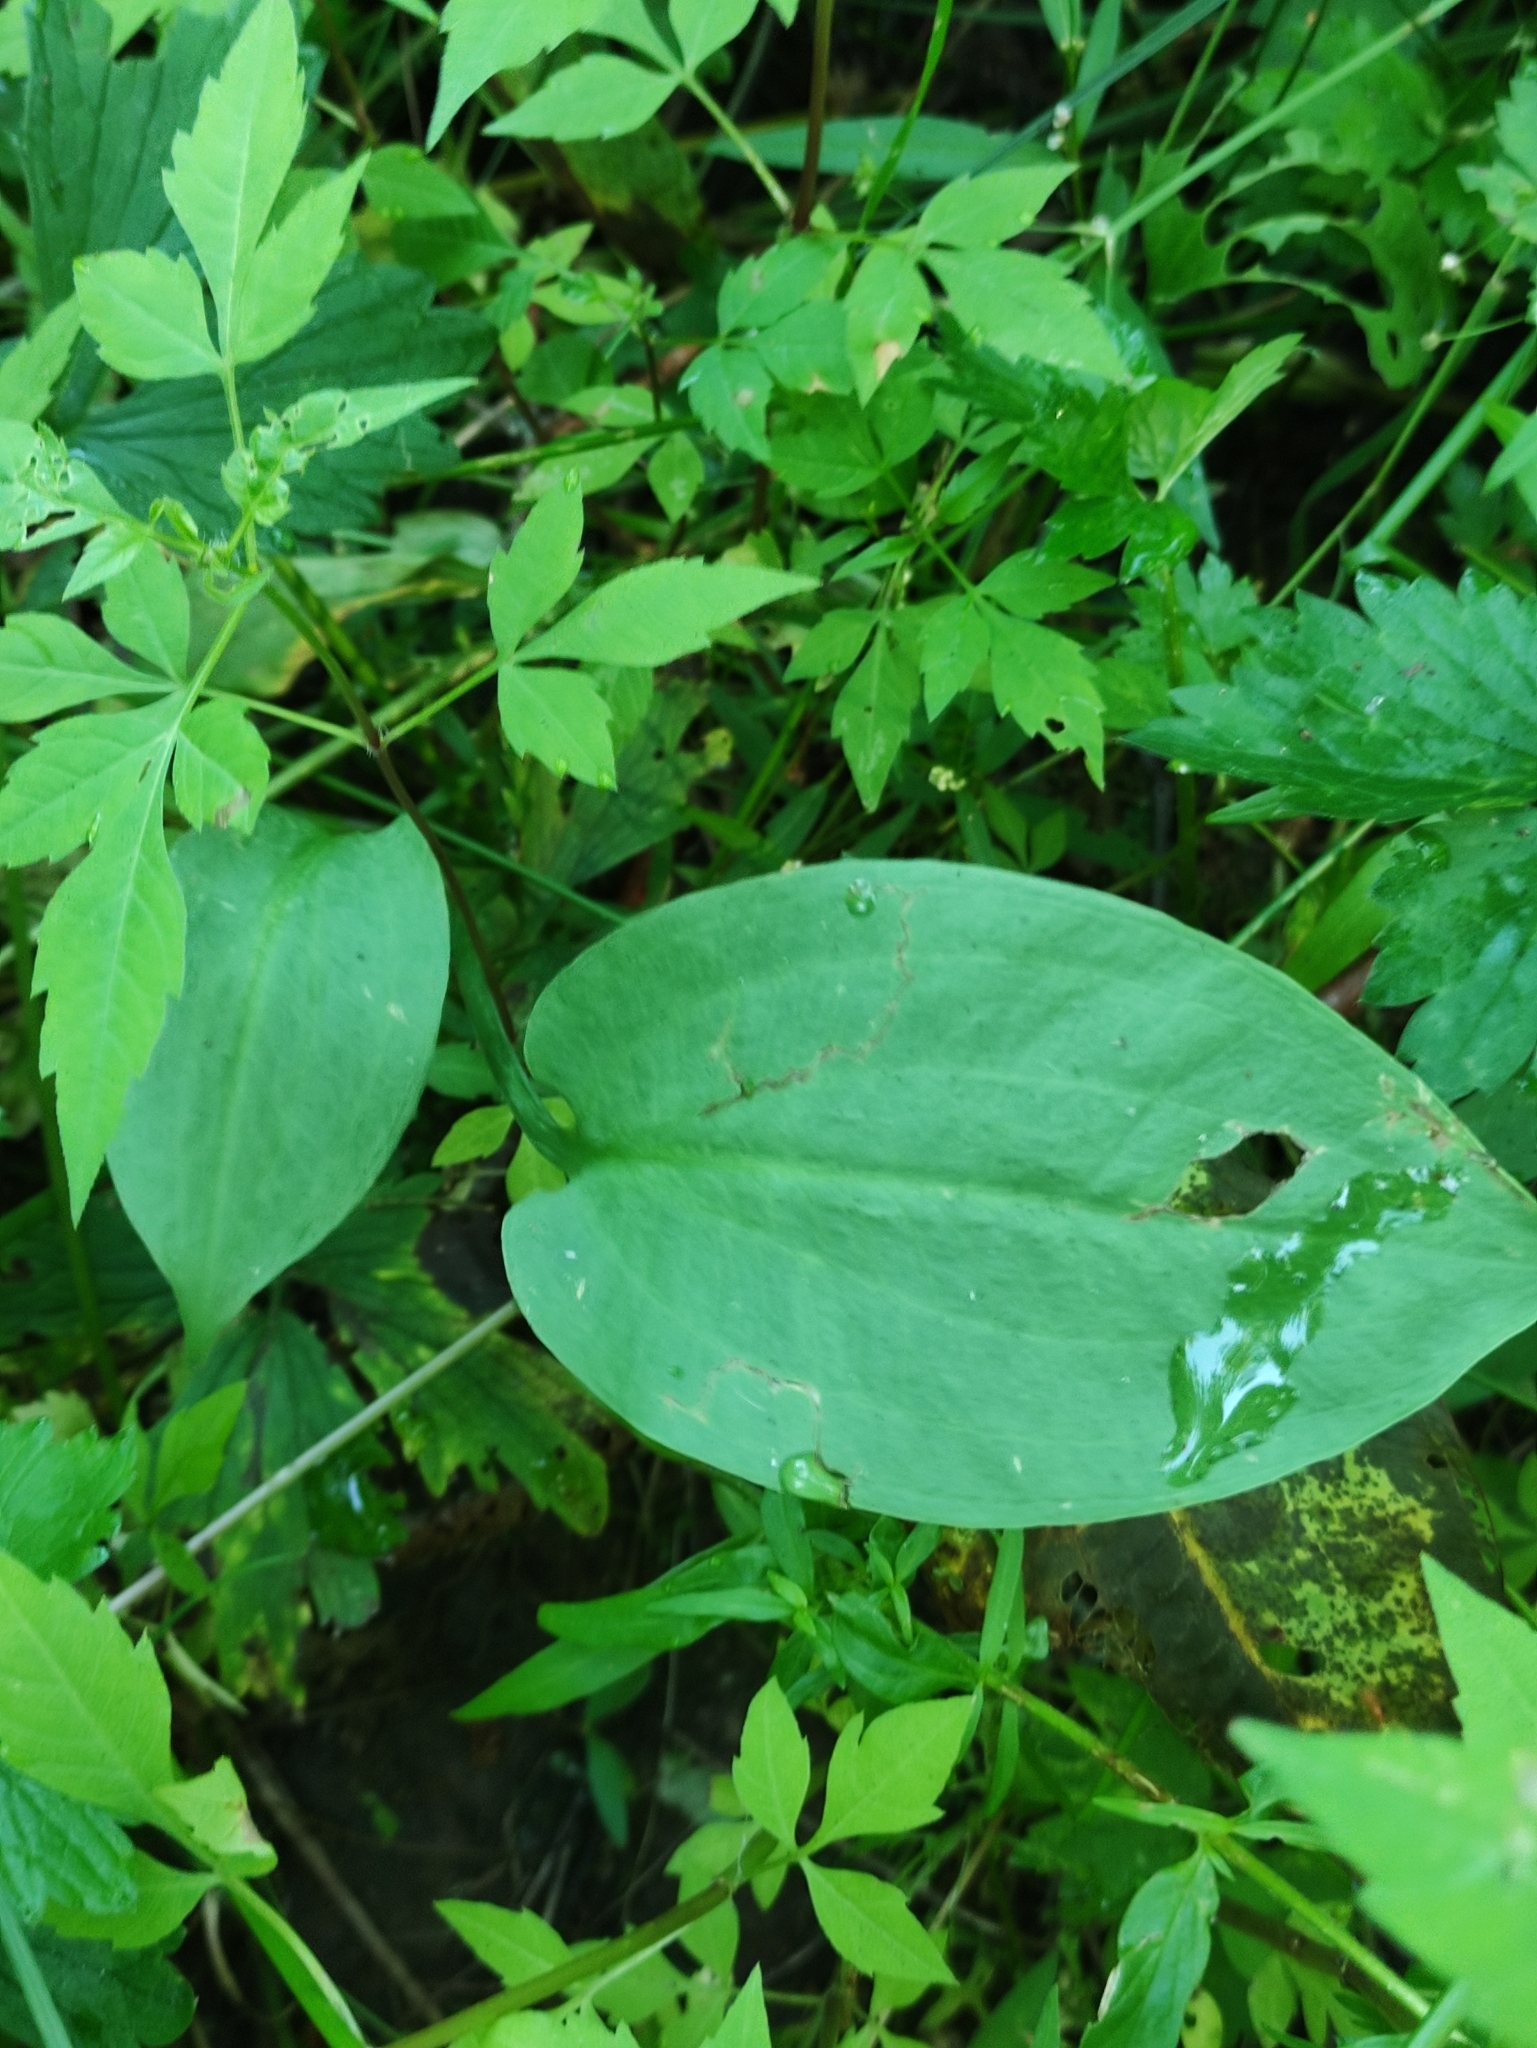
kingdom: Plantae
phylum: Tracheophyta
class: Liliopsida
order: Alismatales
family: Alismataceae
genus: Alisma
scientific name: Alisma plantago-aquatica
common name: Water-plantain
